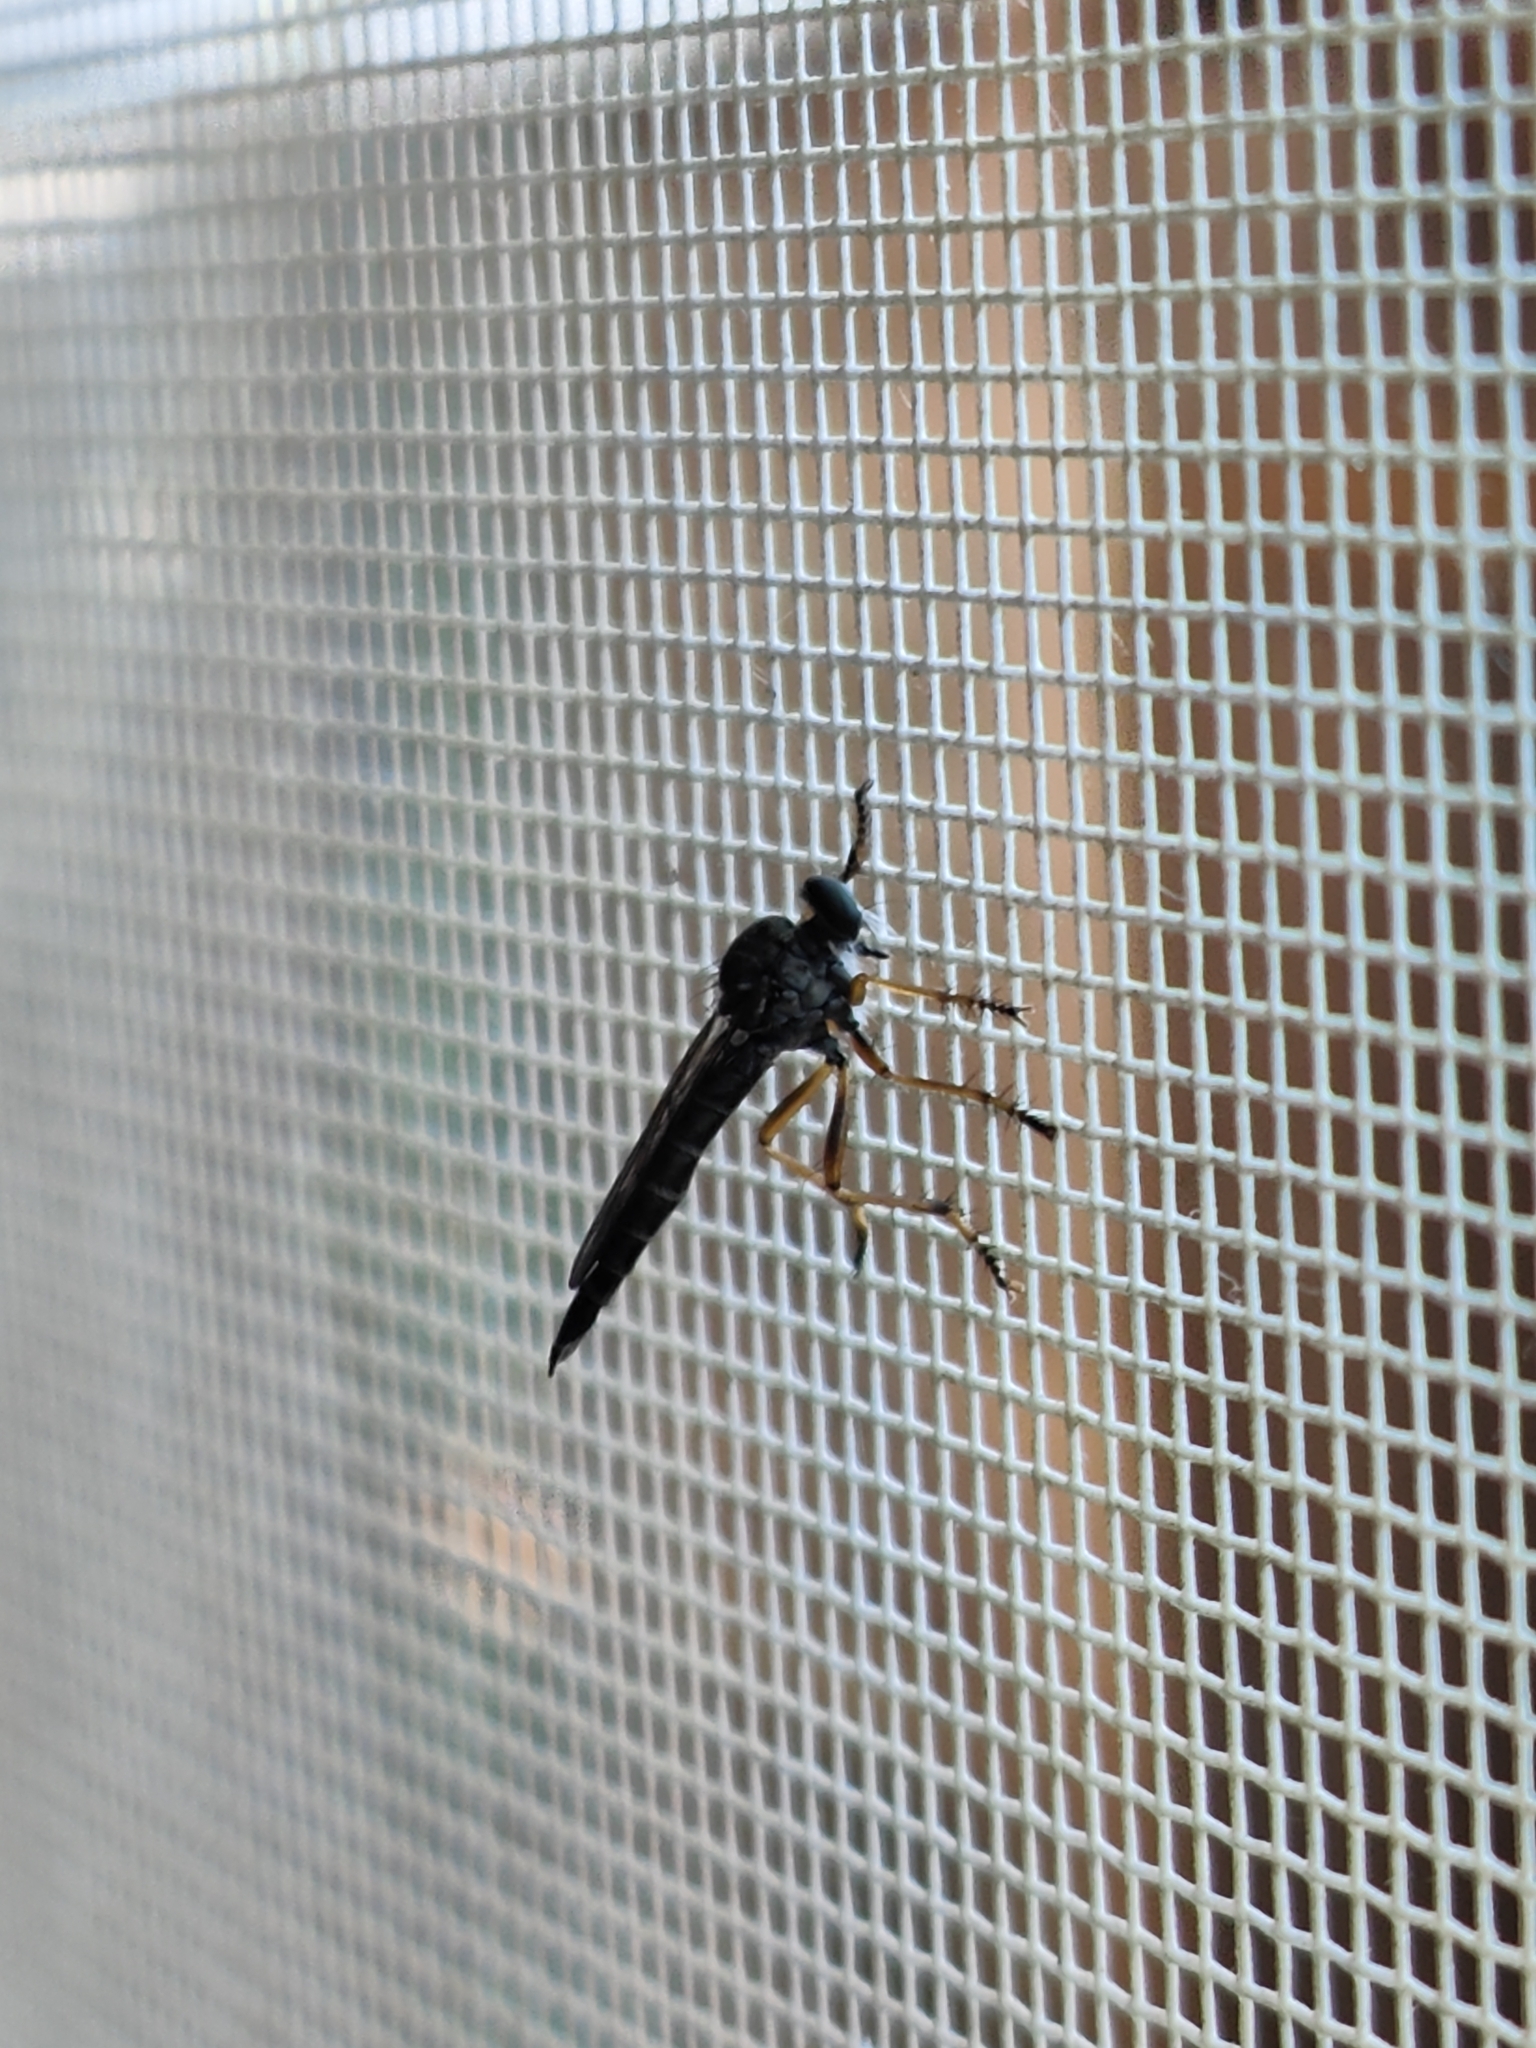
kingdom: Animalia
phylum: Arthropoda
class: Insecta
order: Diptera
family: Asilidae
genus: Neomochtherus
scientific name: Neomochtherus pallipes
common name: Devon red-legged robberfly
